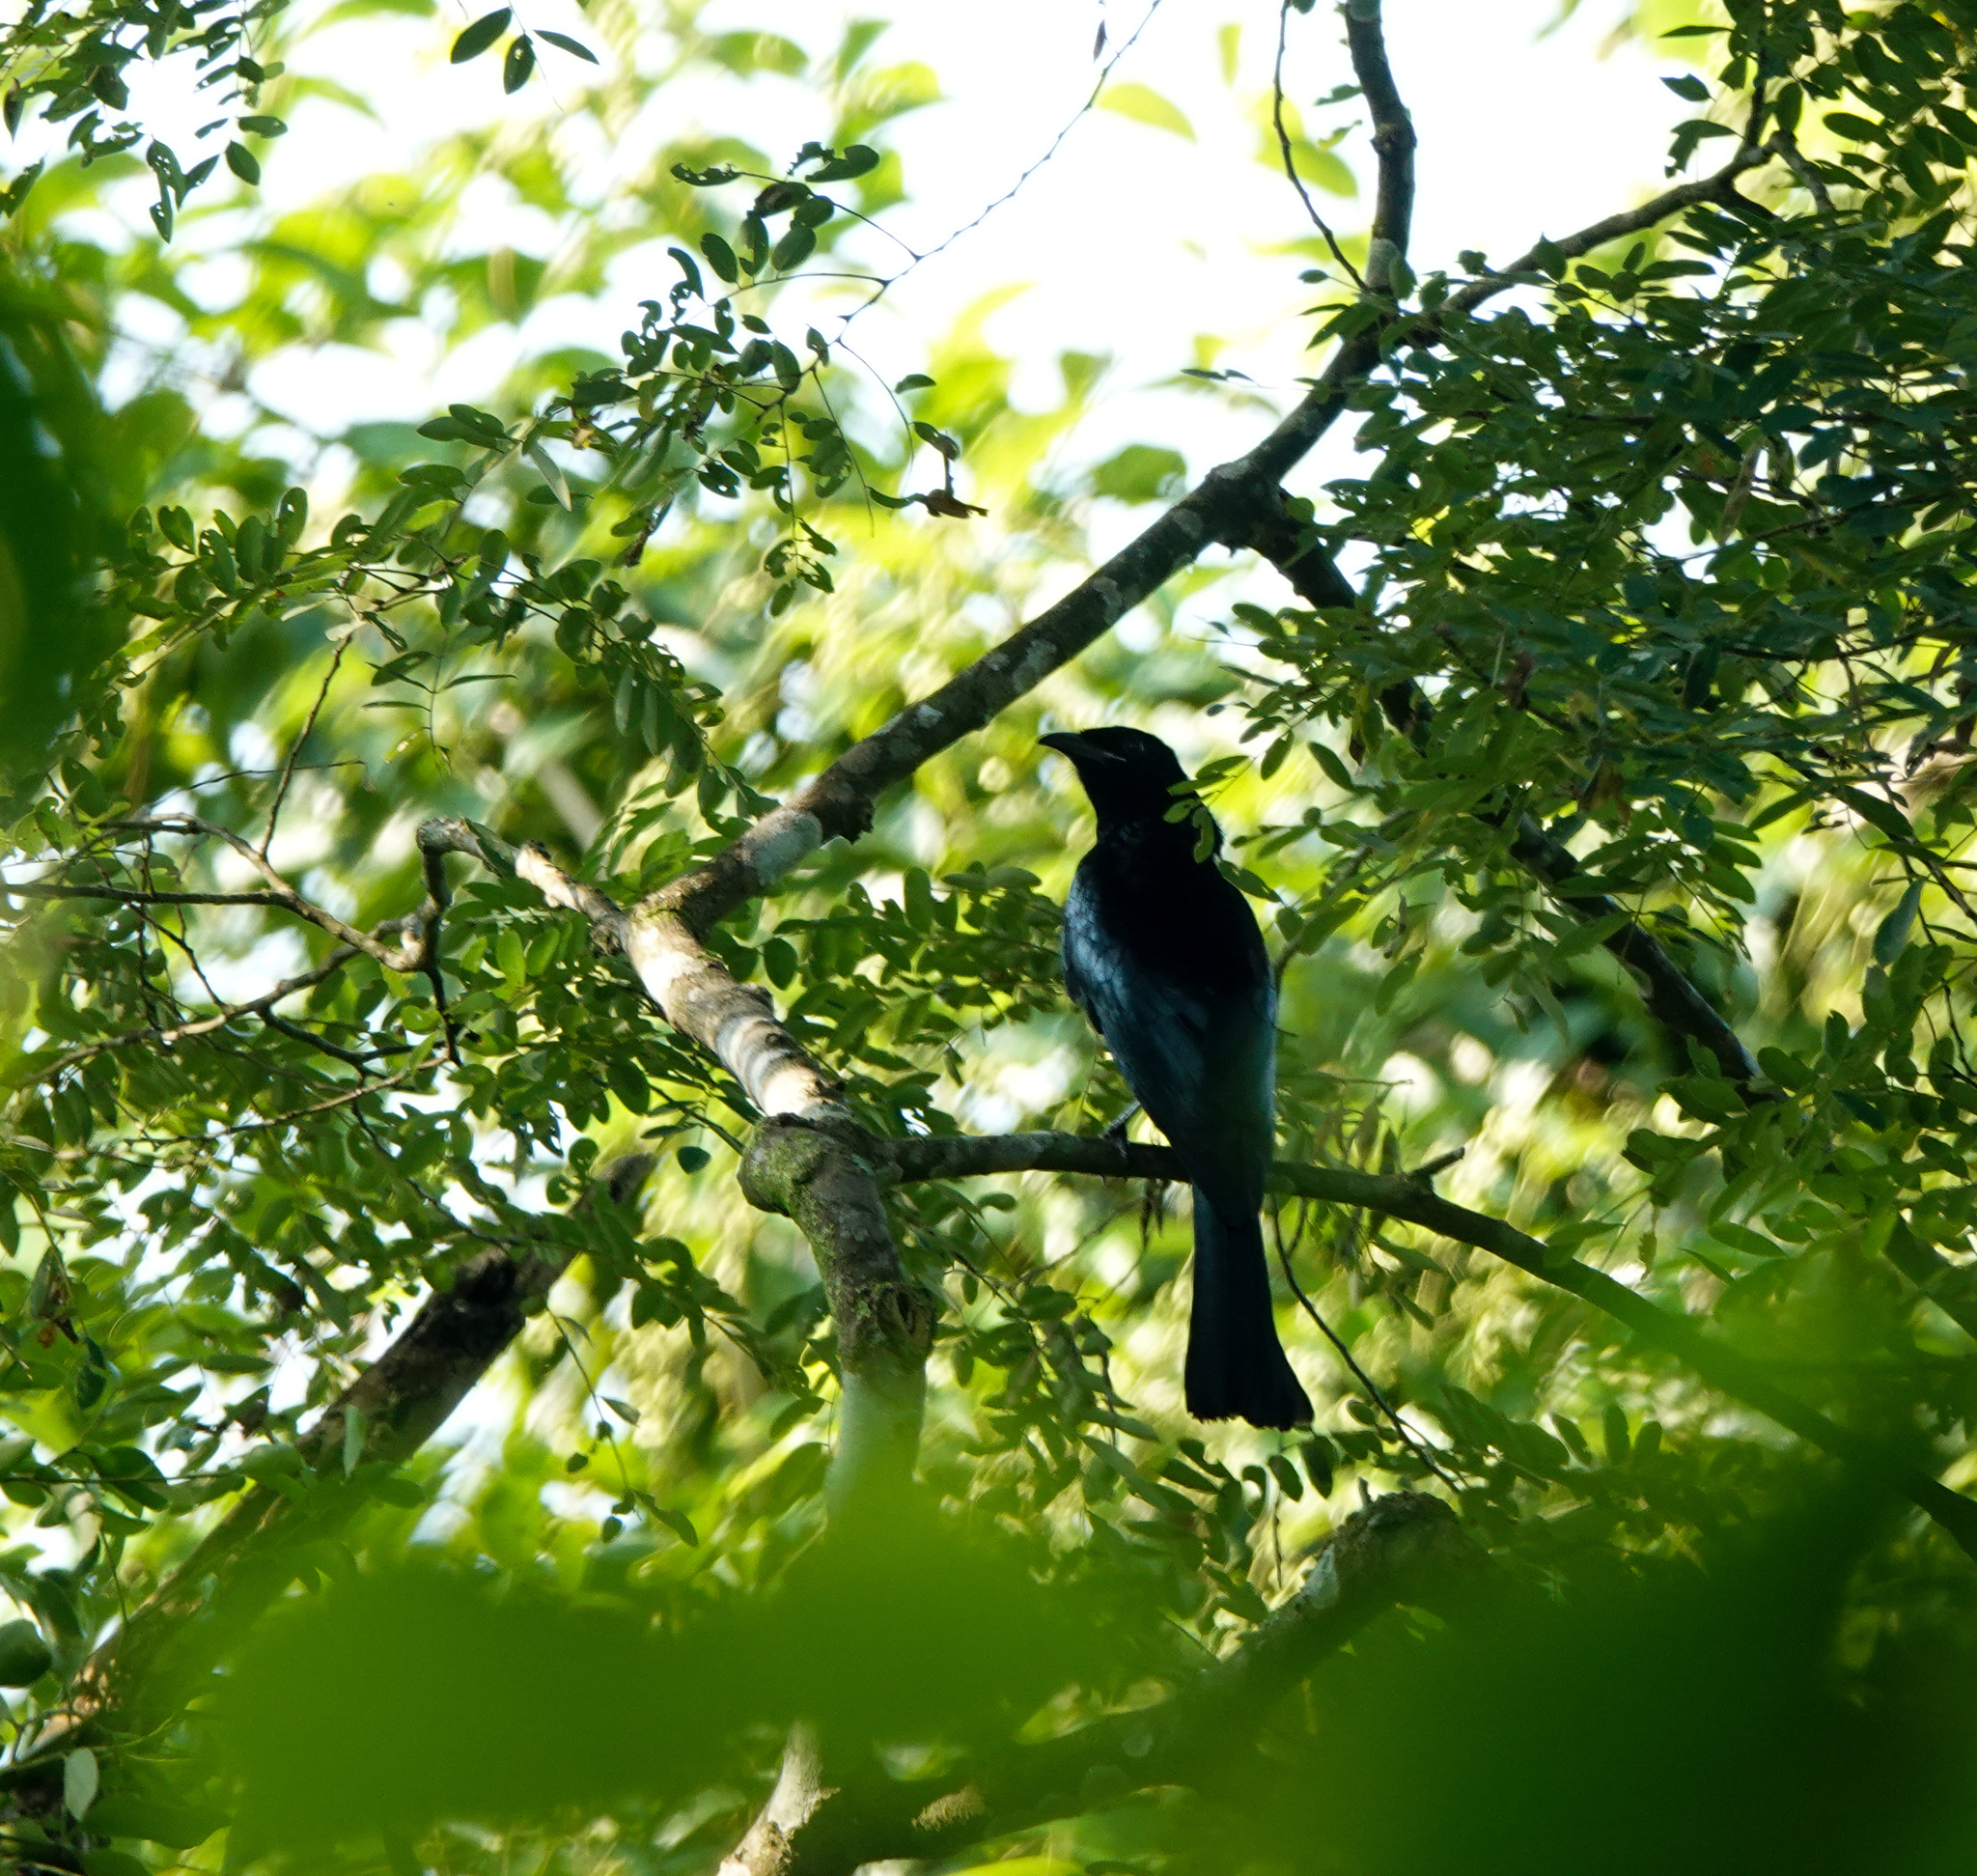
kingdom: Animalia
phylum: Chordata
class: Aves
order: Passeriformes
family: Dicruridae
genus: Dicrurus
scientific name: Dicrurus hottentottus
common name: Hair-crested drongo
